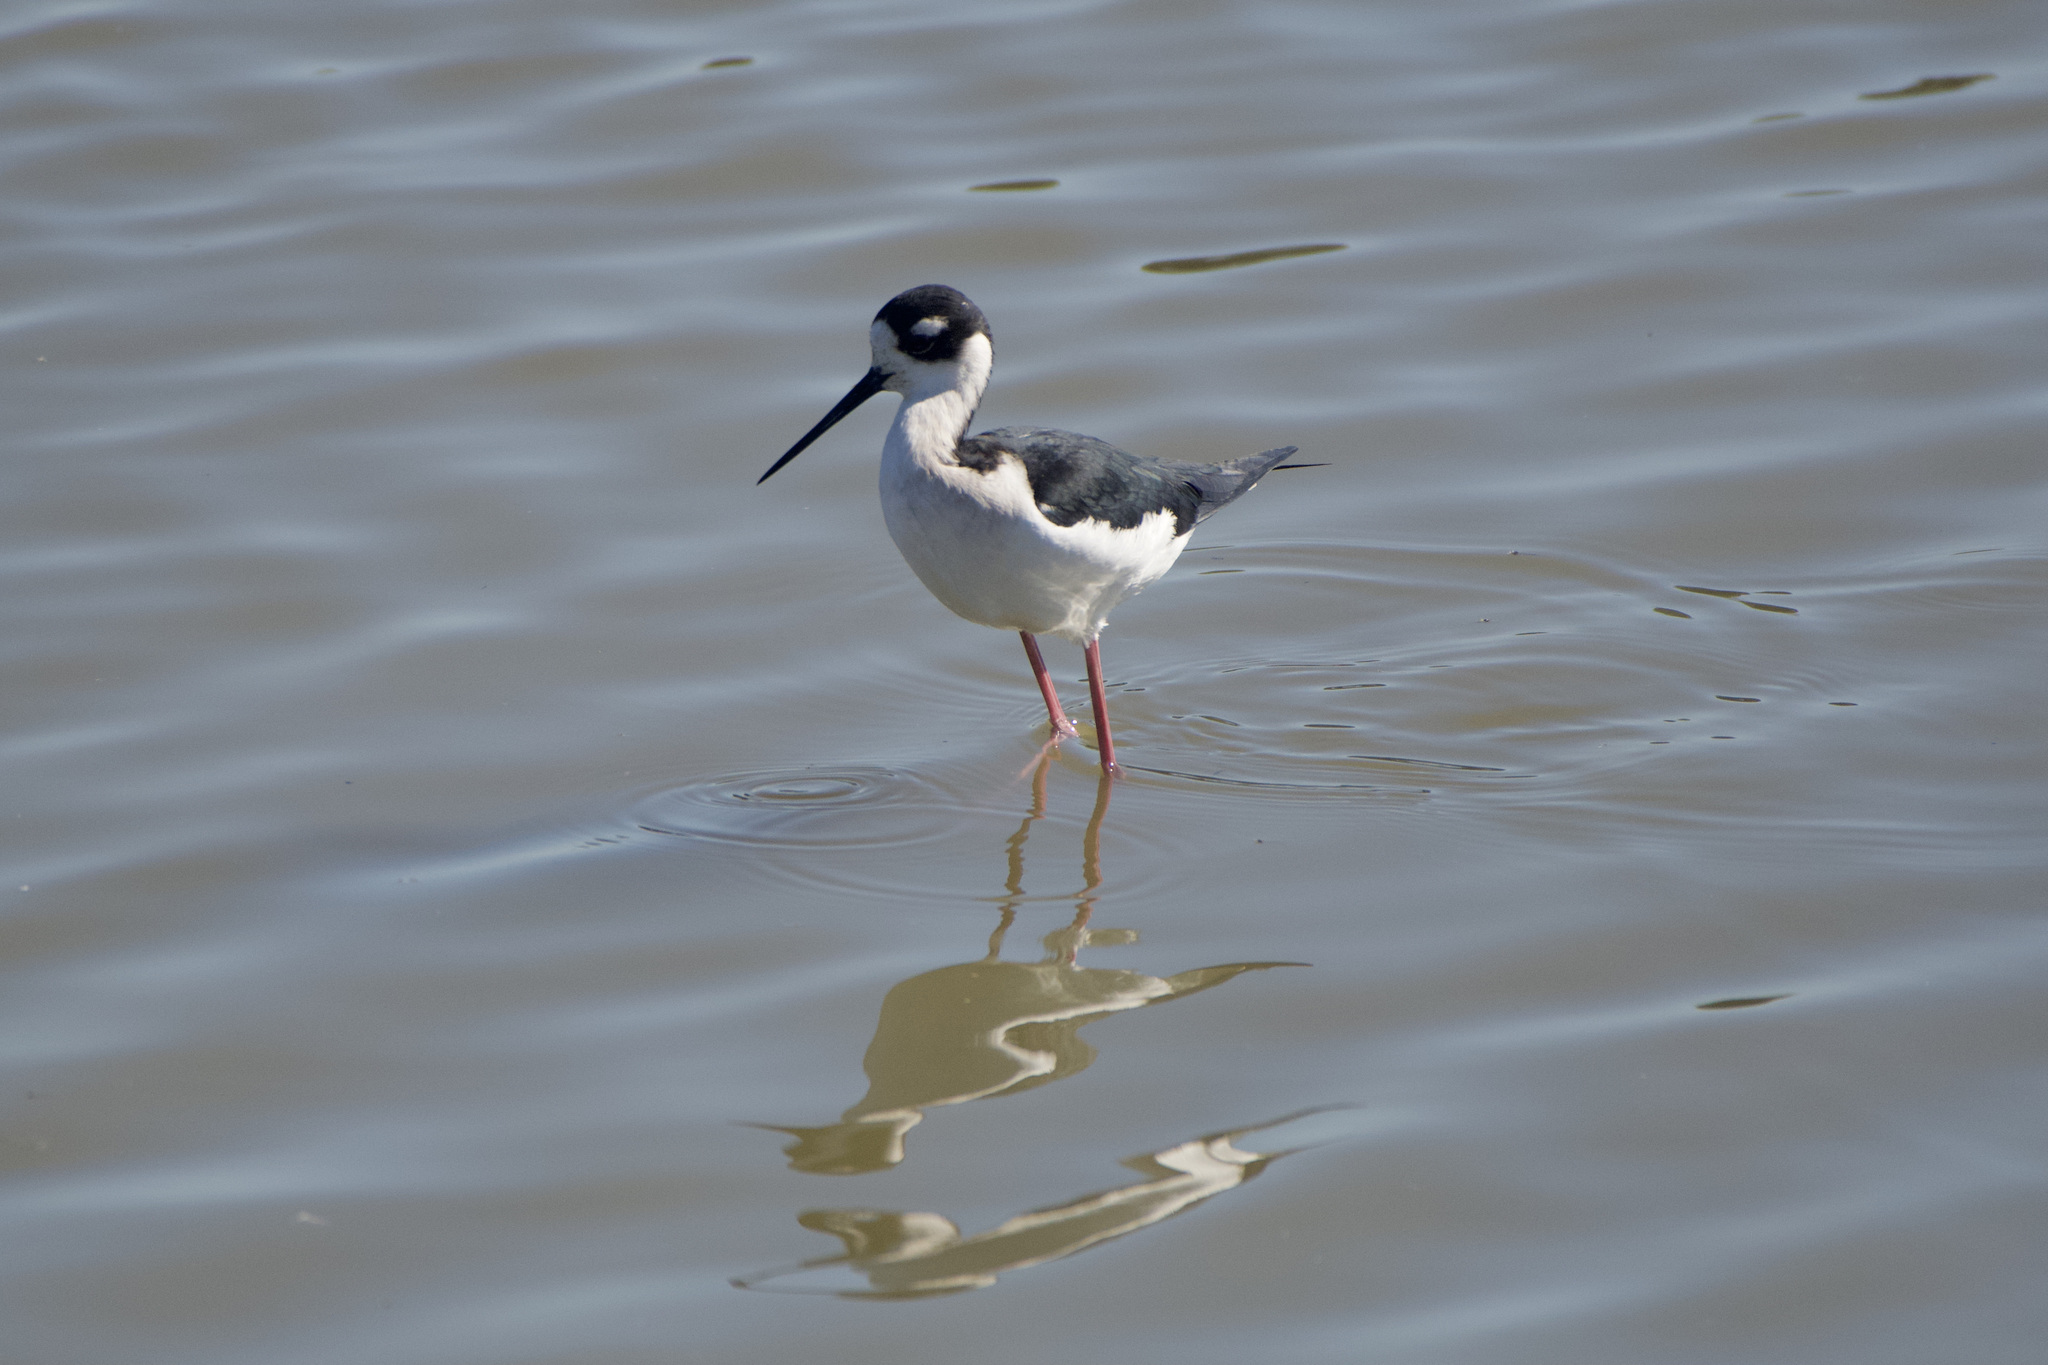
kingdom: Animalia
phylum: Chordata
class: Aves
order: Charadriiformes
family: Recurvirostridae
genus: Himantopus
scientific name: Himantopus mexicanus
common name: Black-necked stilt
